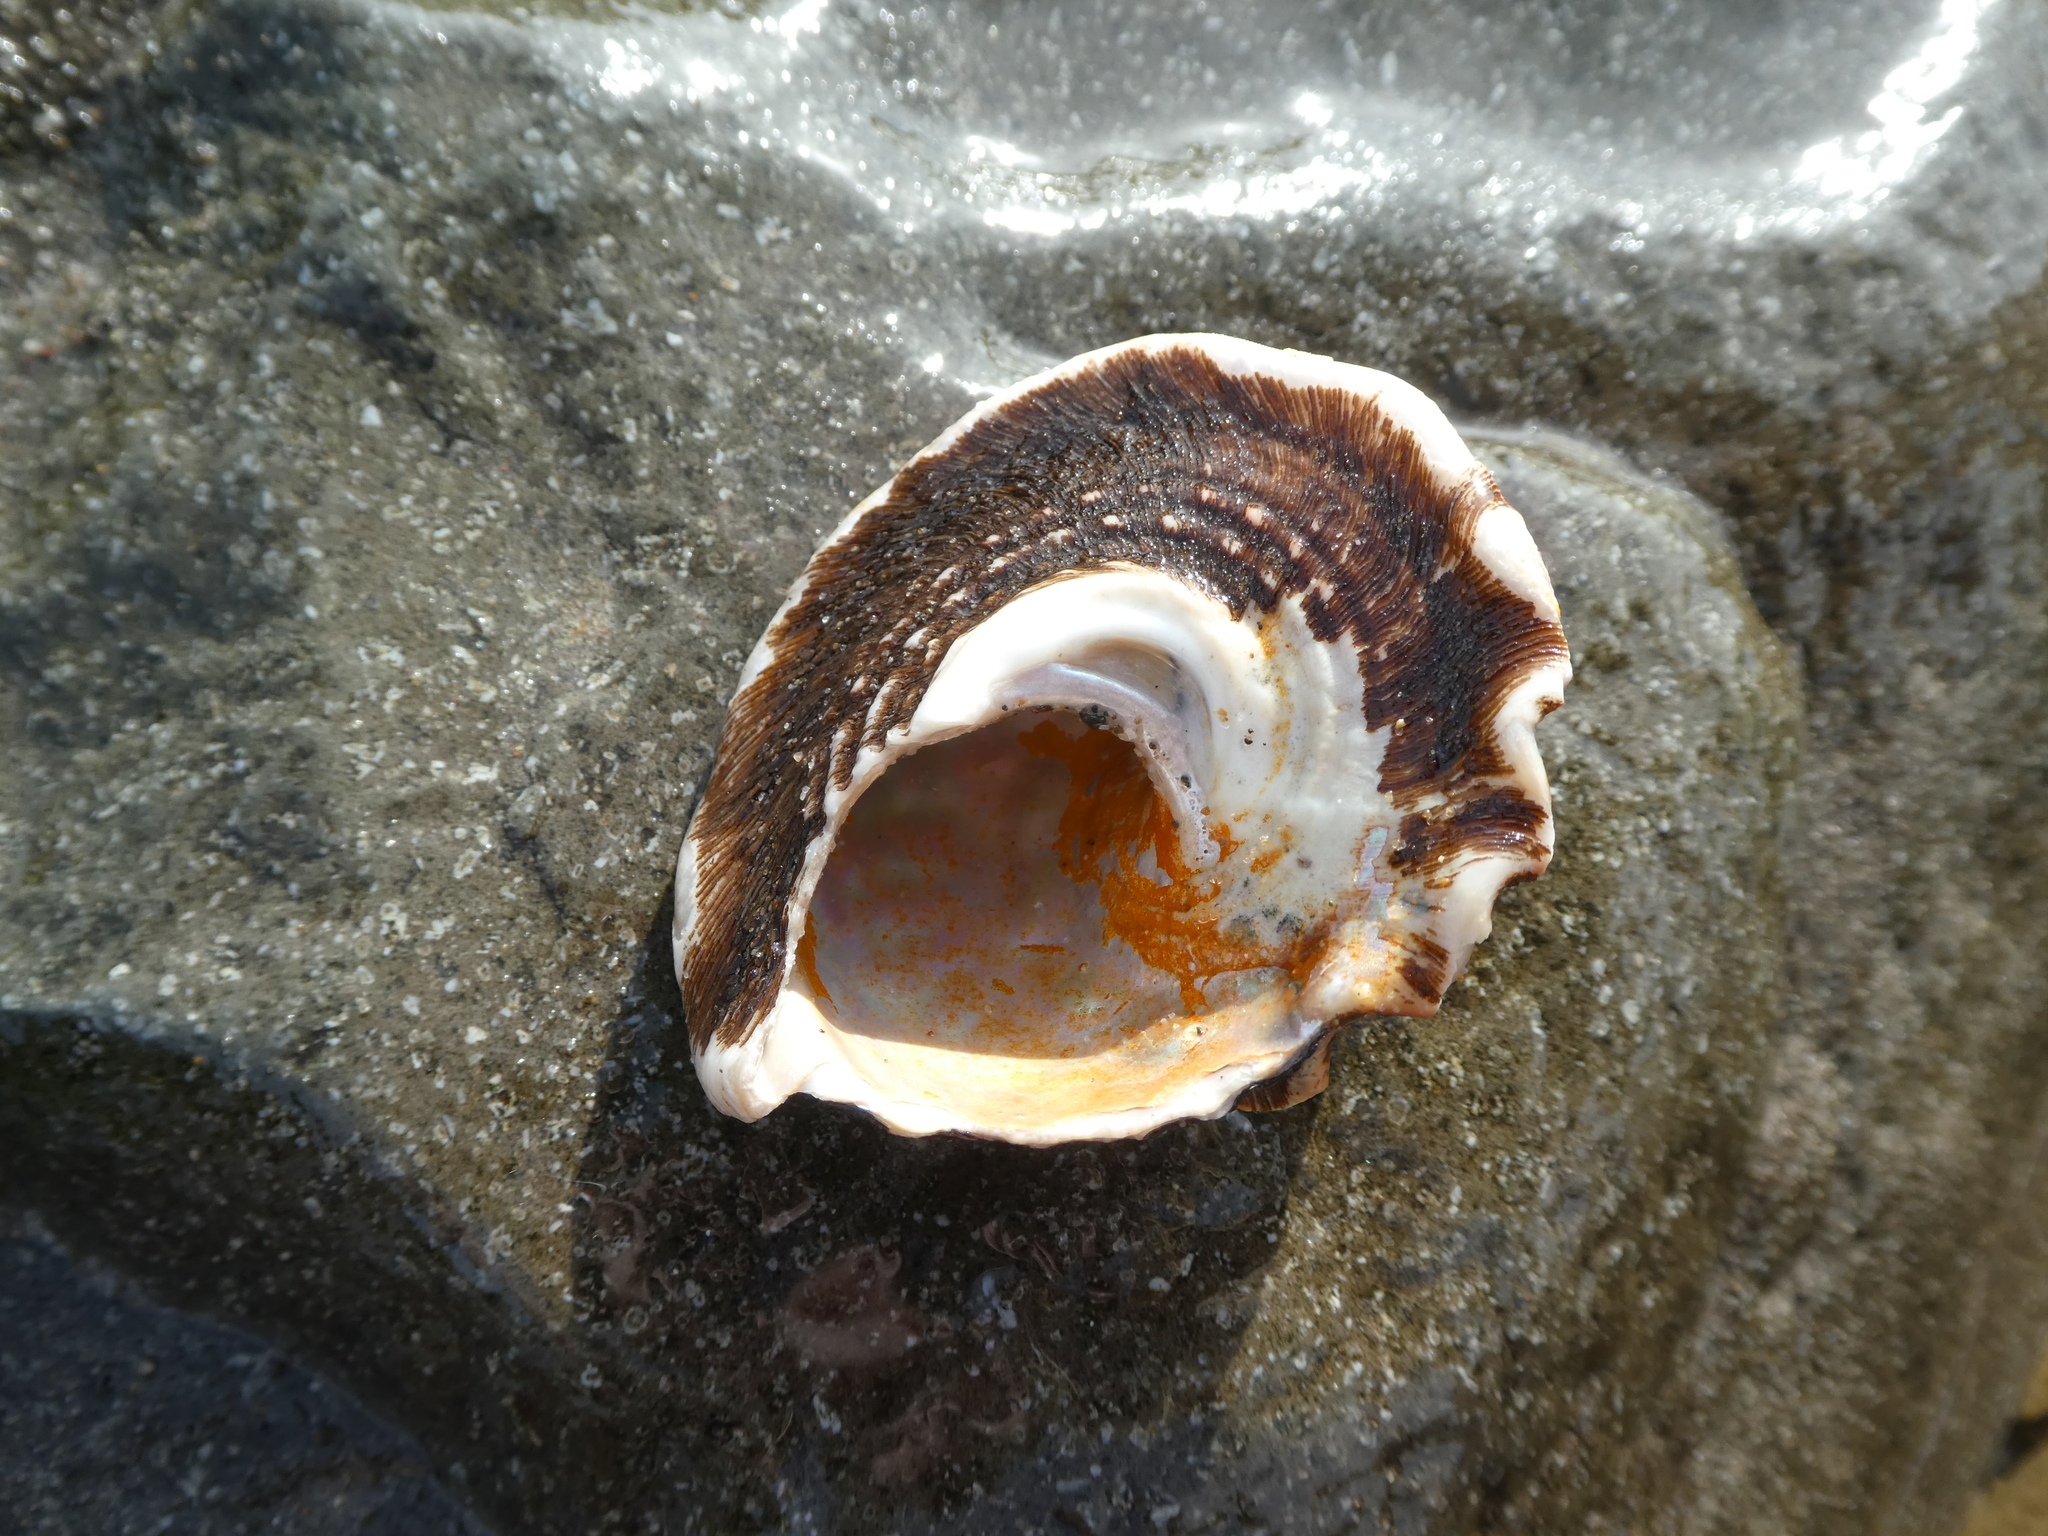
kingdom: Animalia
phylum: Mollusca
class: Gastropoda
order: Trochida
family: Turbinidae
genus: Megastraea
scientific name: Megastraea undosa
